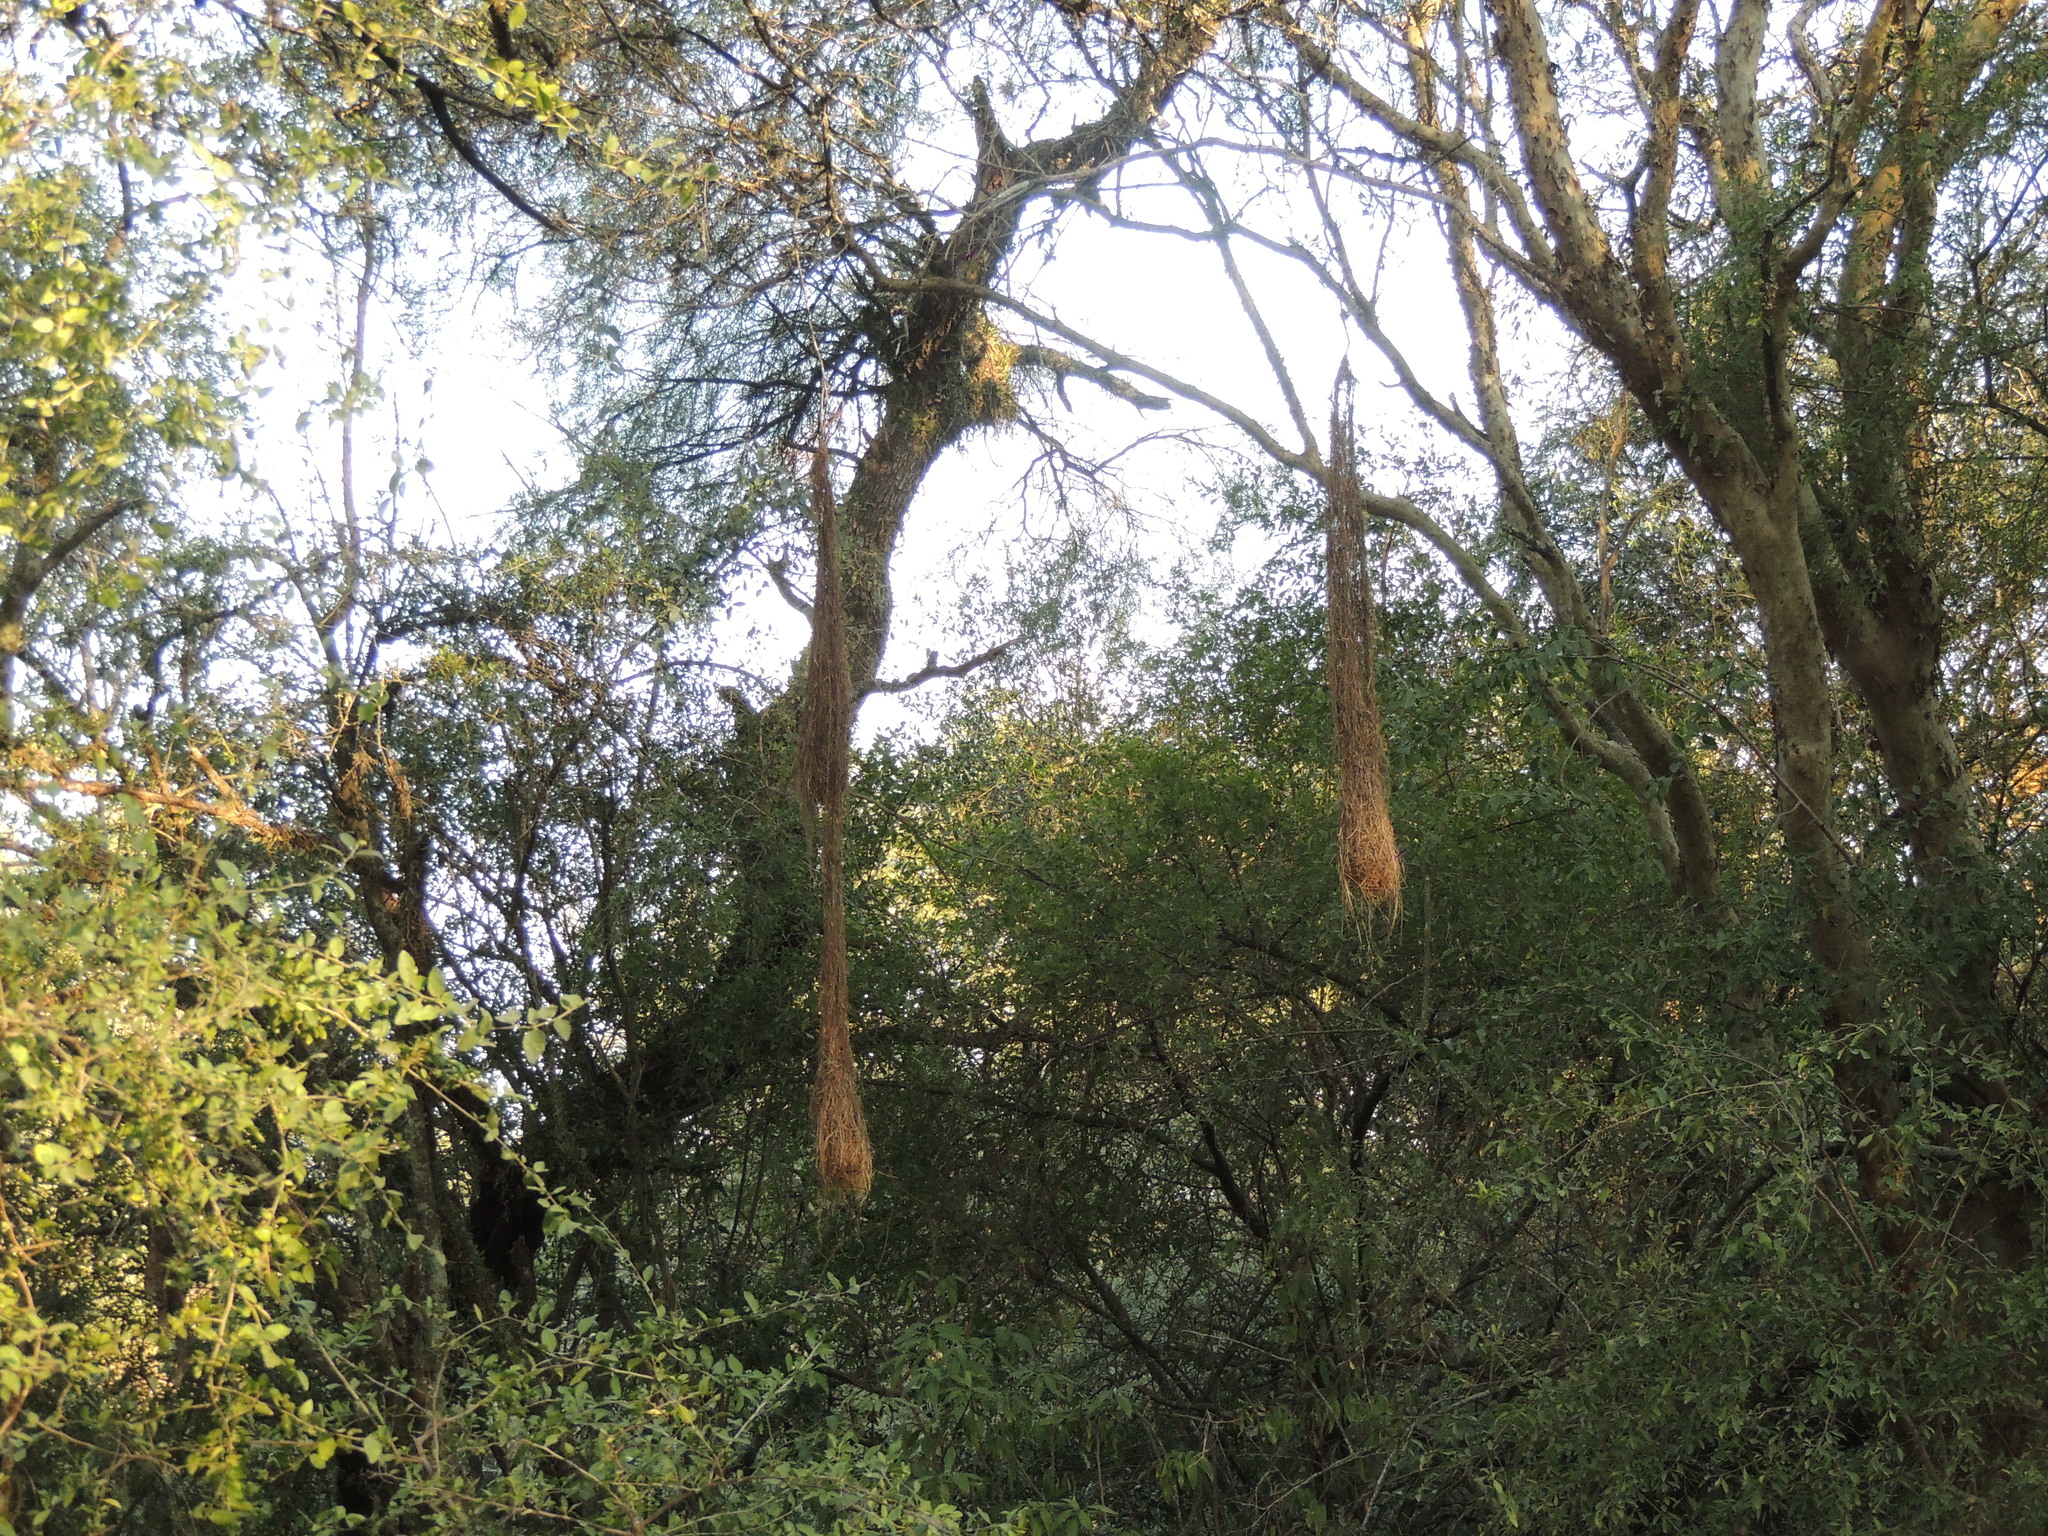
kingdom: Animalia
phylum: Chordata
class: Aves
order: Passeriformes
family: Icteridae
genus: Cacicus
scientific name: Cacicus solitarius
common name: Solitary cacique
